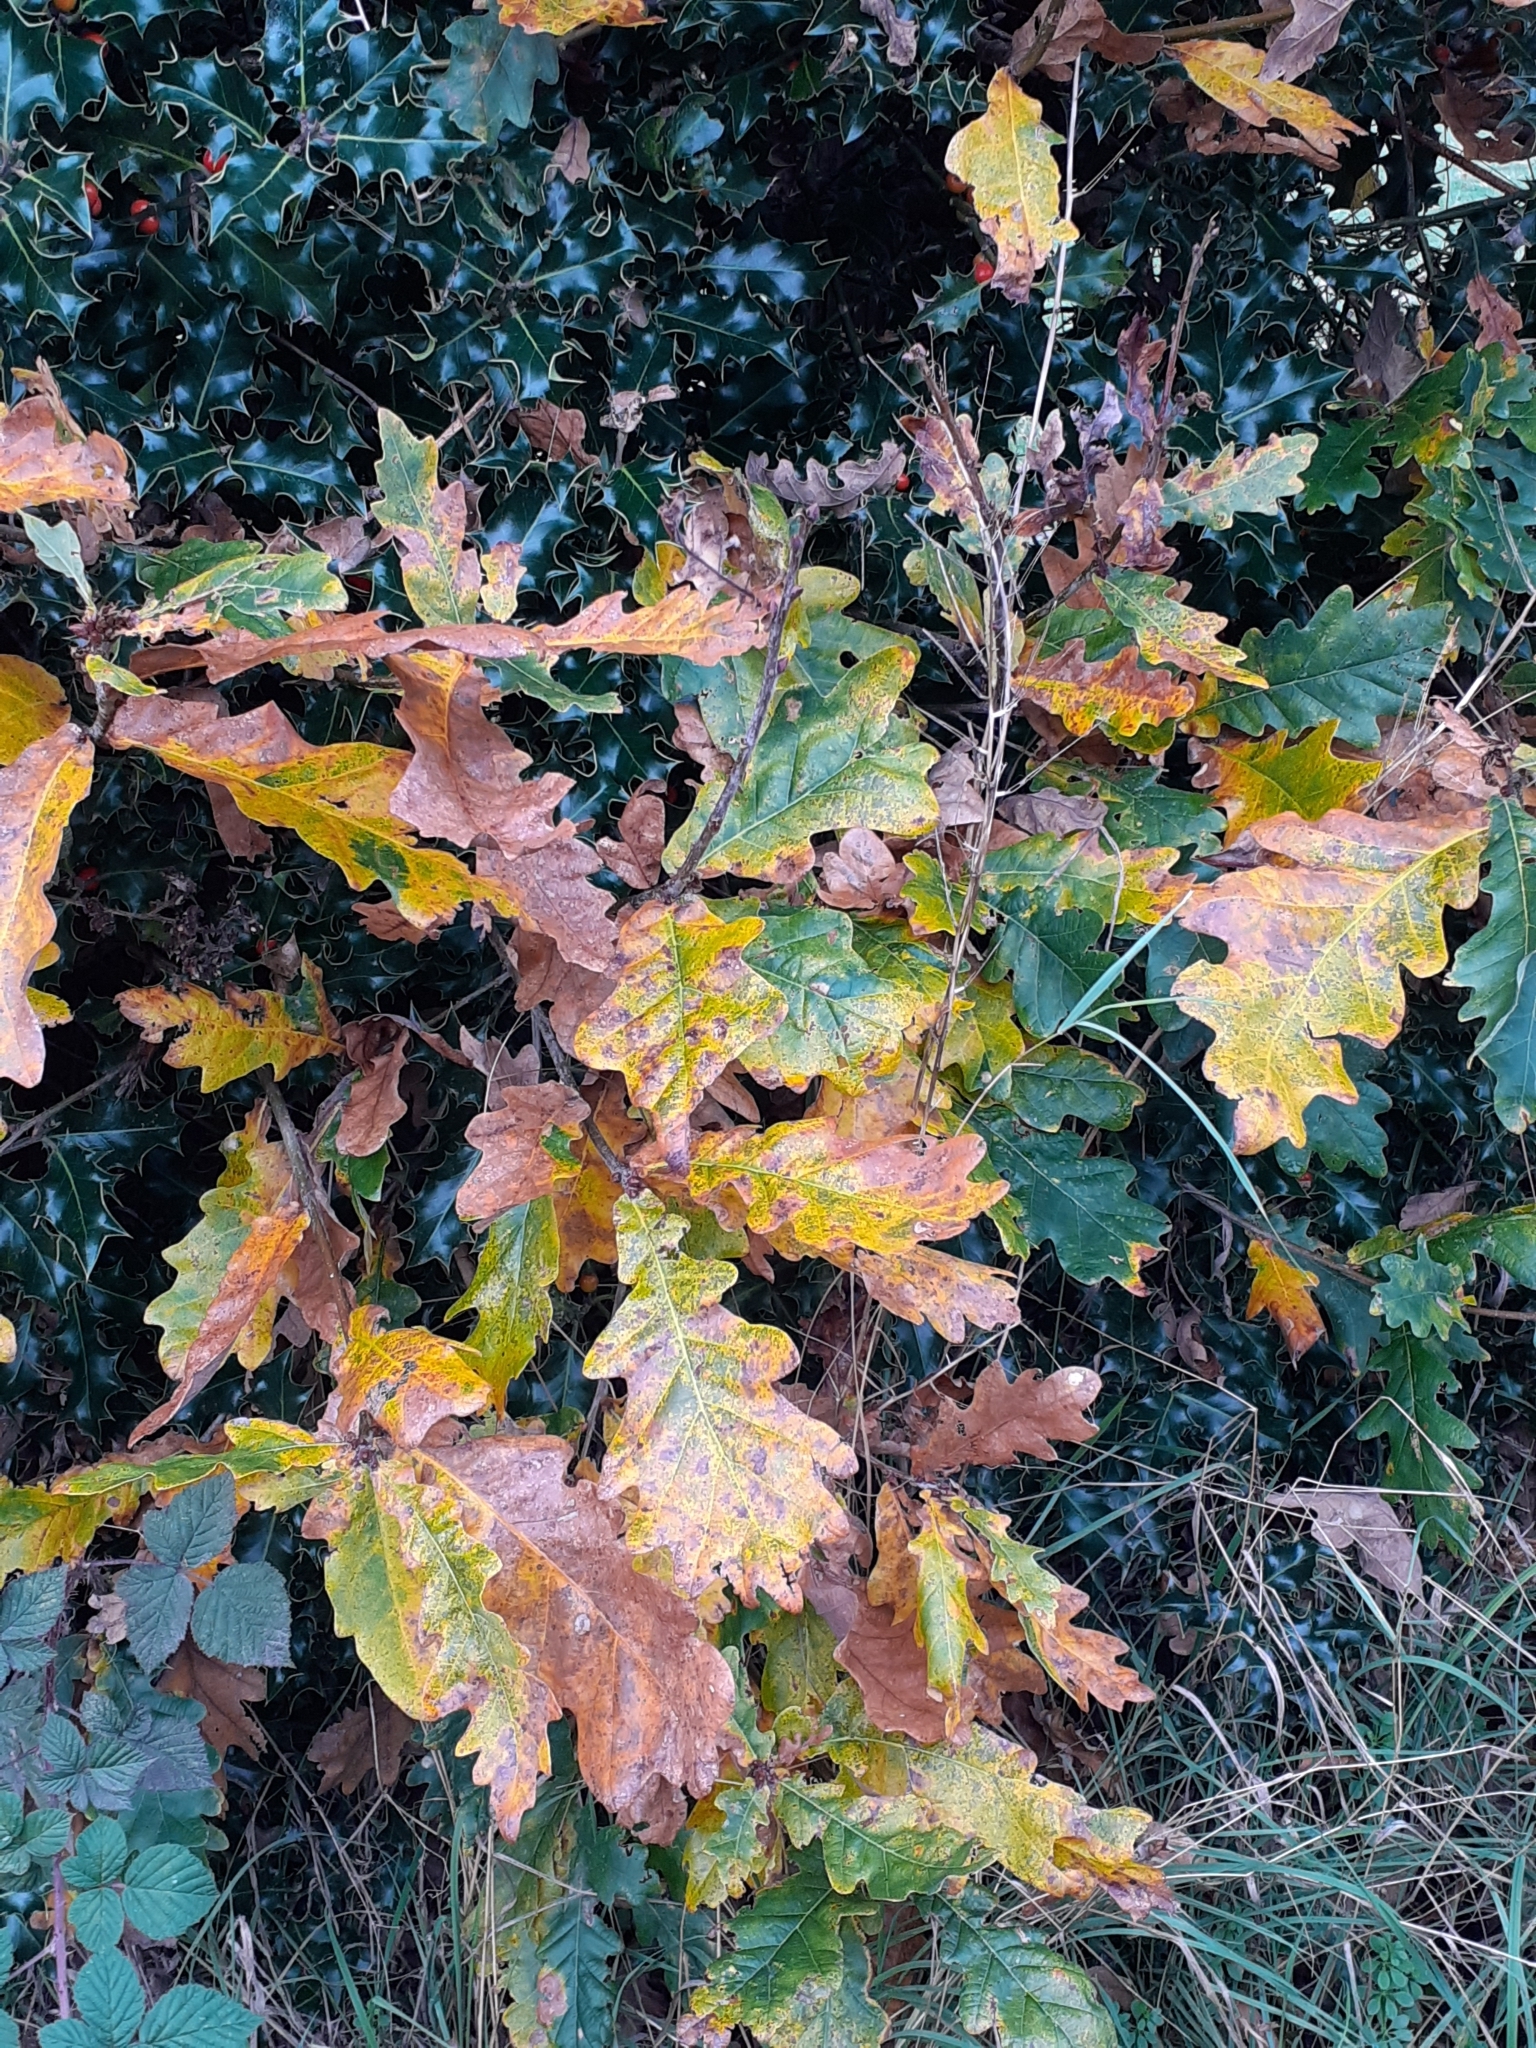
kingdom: Plantae
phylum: Tracheophyta
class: Magnoliopsida
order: Fagales
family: Fagaceae
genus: Quercus
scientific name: Quercus robur
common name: Pedunculate oak
